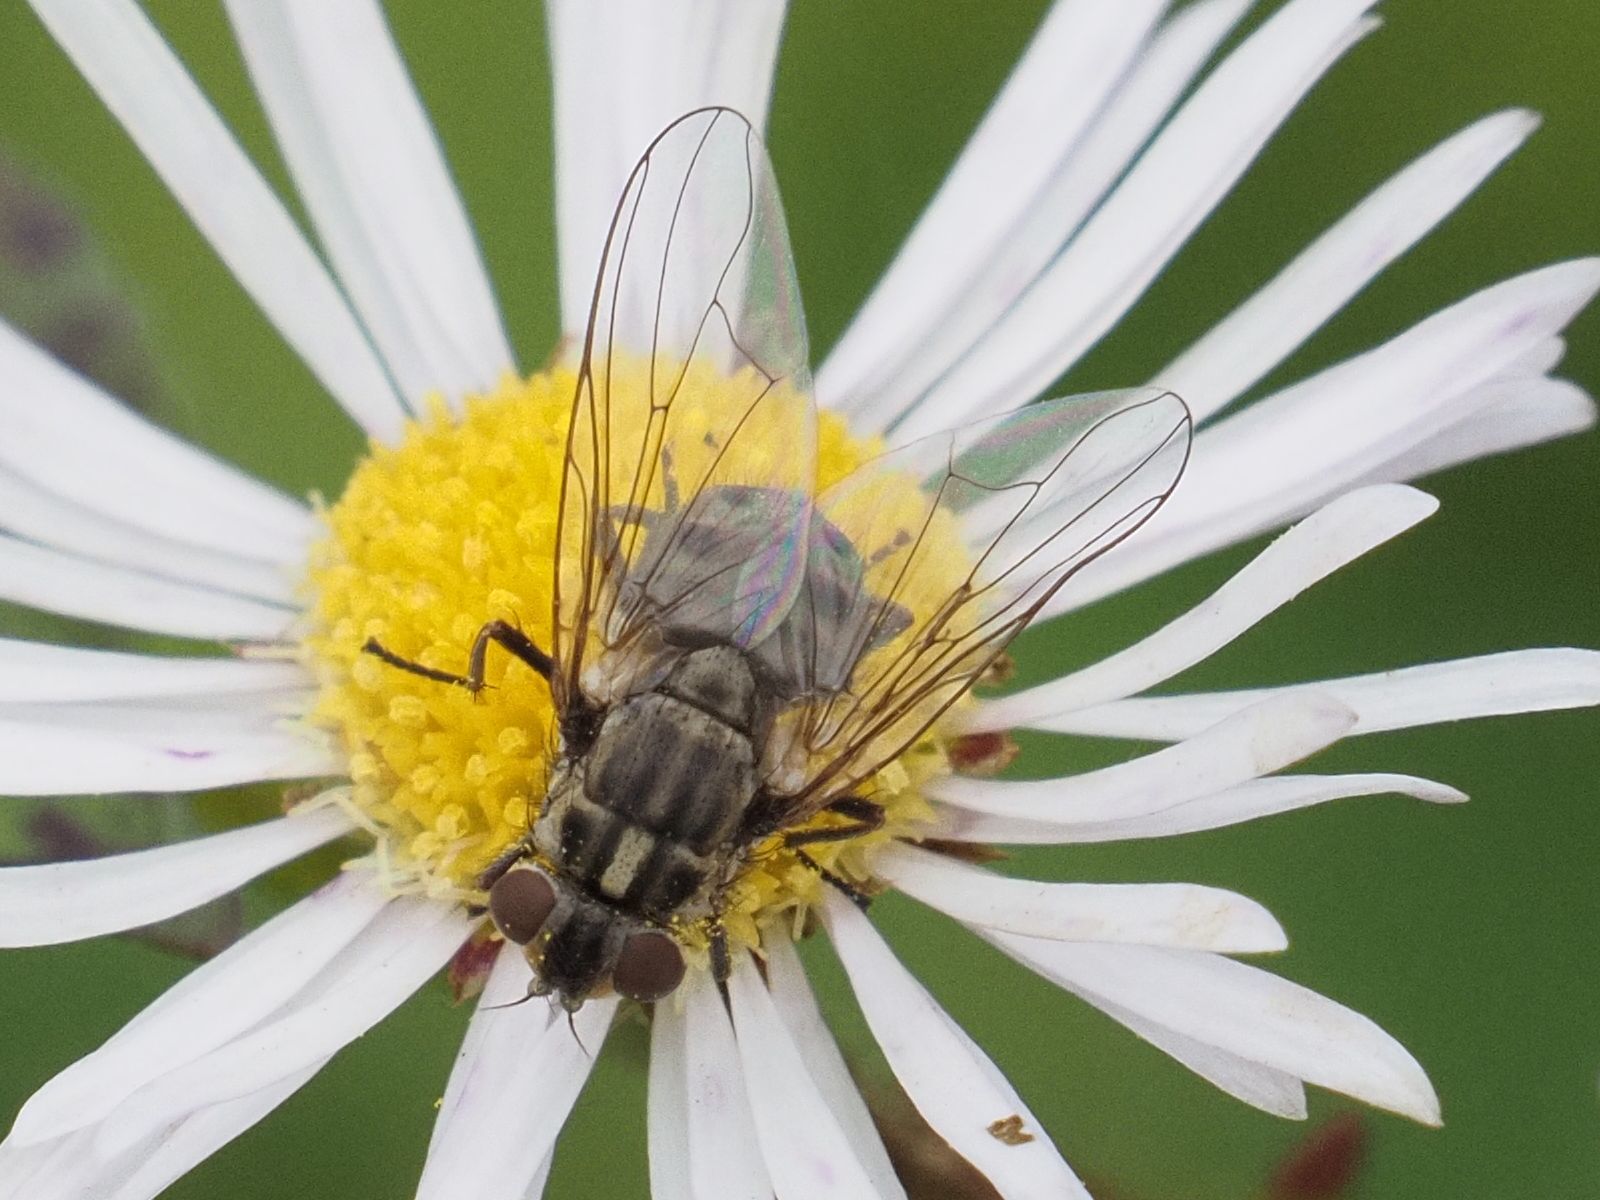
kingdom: Animalia
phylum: Arthropoda
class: Insecta
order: Diptera
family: Muscidae
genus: Stomoxys
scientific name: Stomoxys calcitrans
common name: Stable fly
